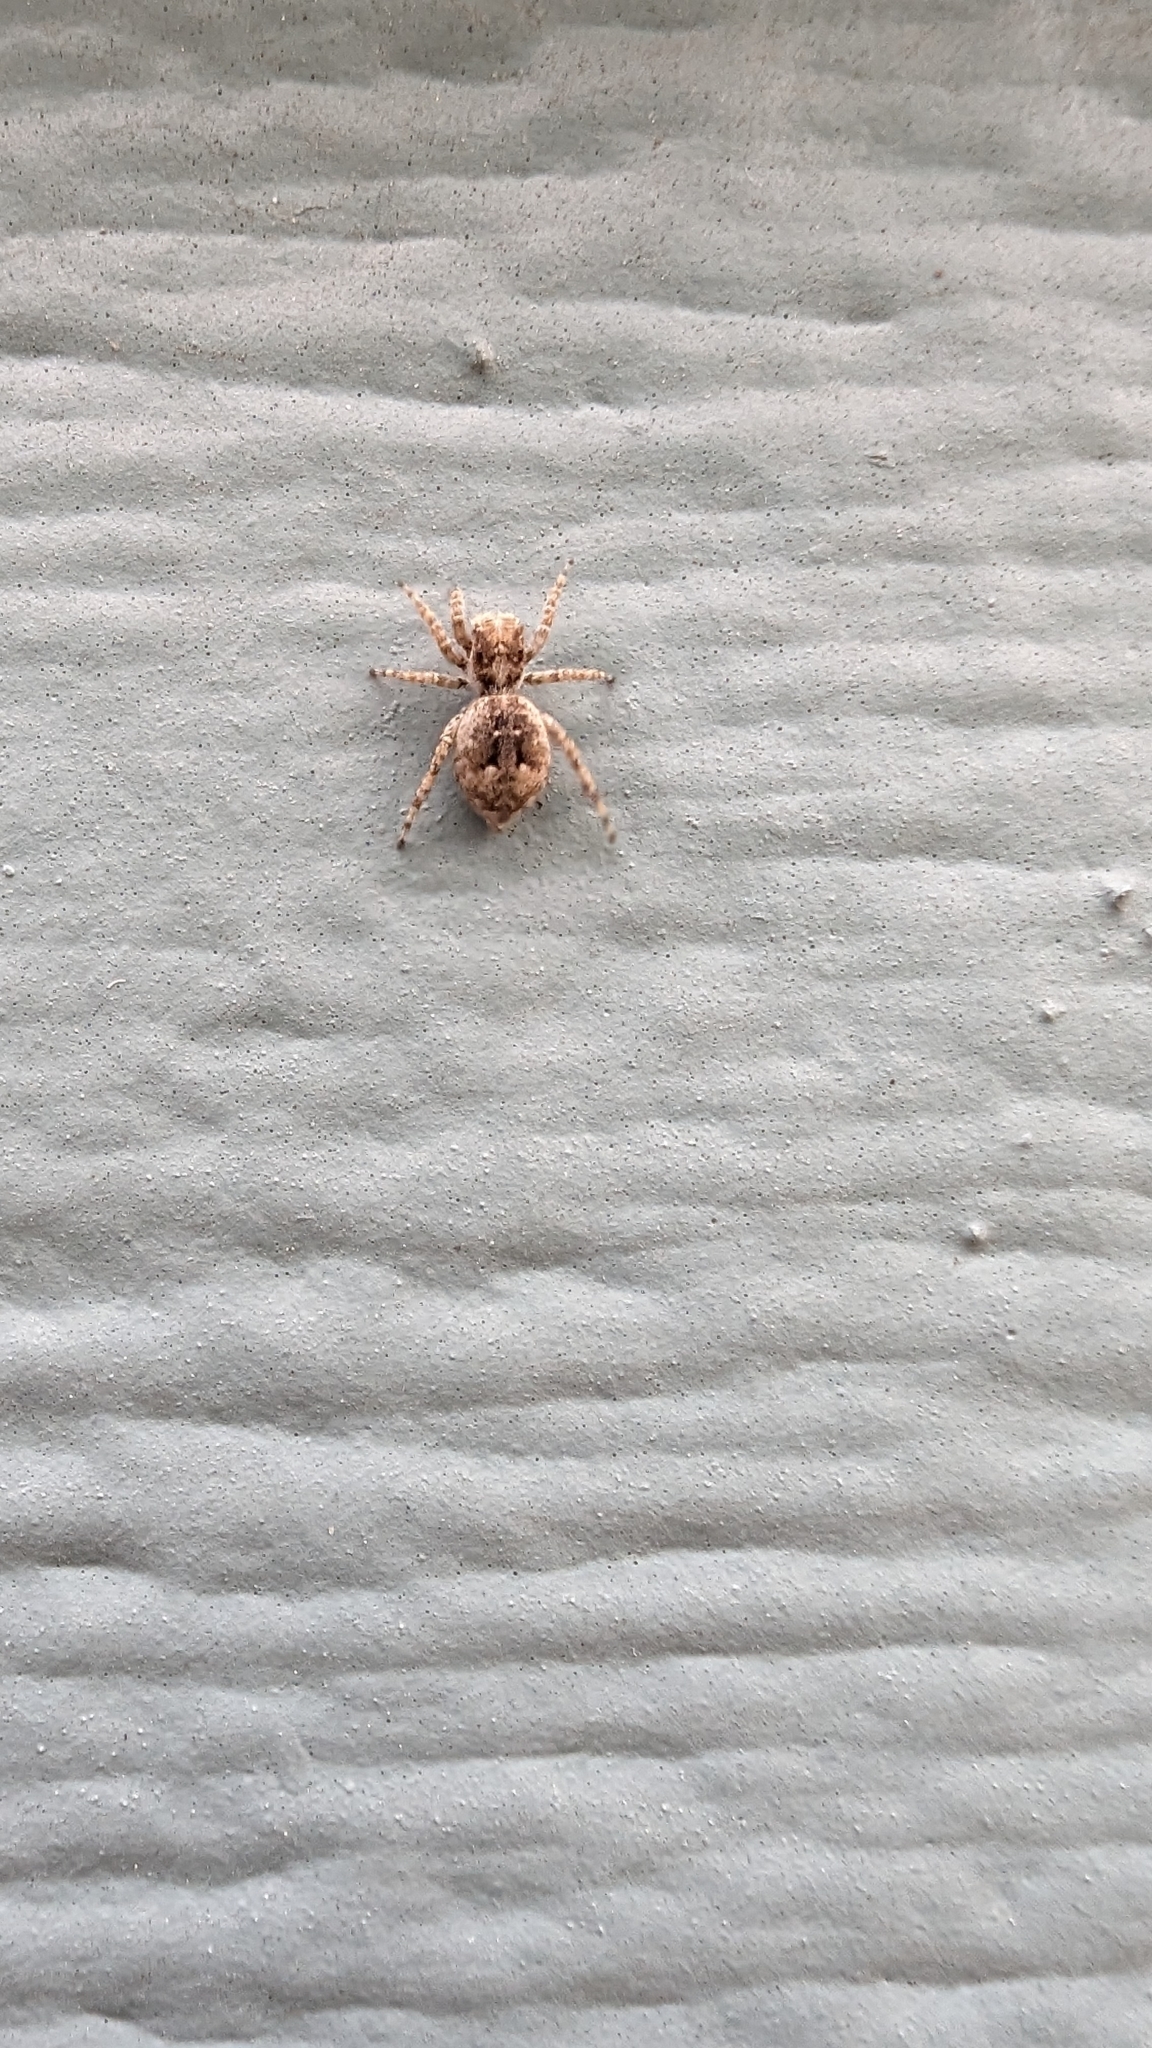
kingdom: Animalia
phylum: Arthropoda
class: Arachnida
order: Araneae
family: Salticidae
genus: Attulus
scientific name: Attulus fasciger
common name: Asiatic wall jumping spider
